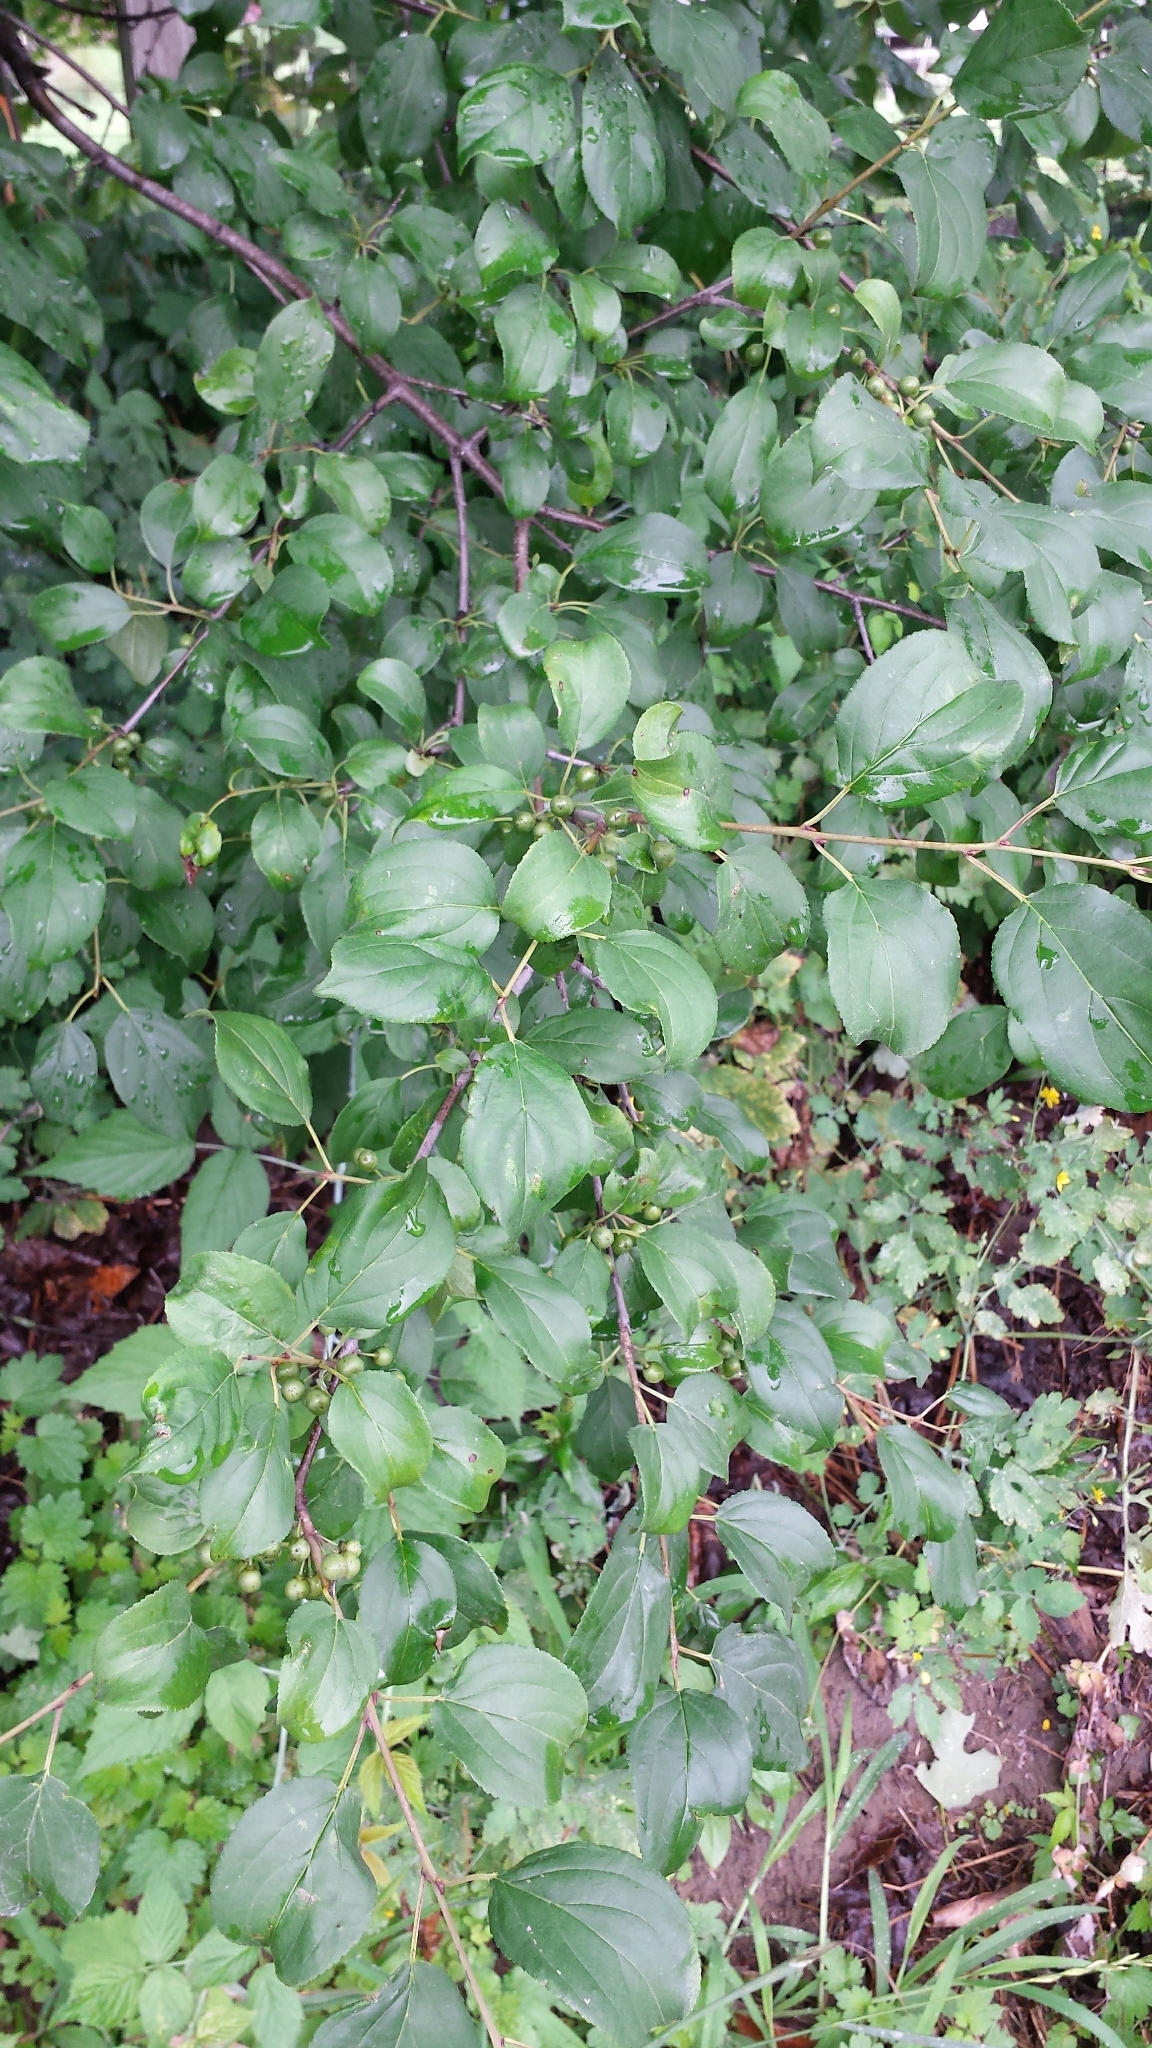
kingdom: Plantae
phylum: Tracheophyta
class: Magnoliopsida
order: Rosales
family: Rhamnaceae
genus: Rhamnus
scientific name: Rhamnus cathartica
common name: Common buckthorn
